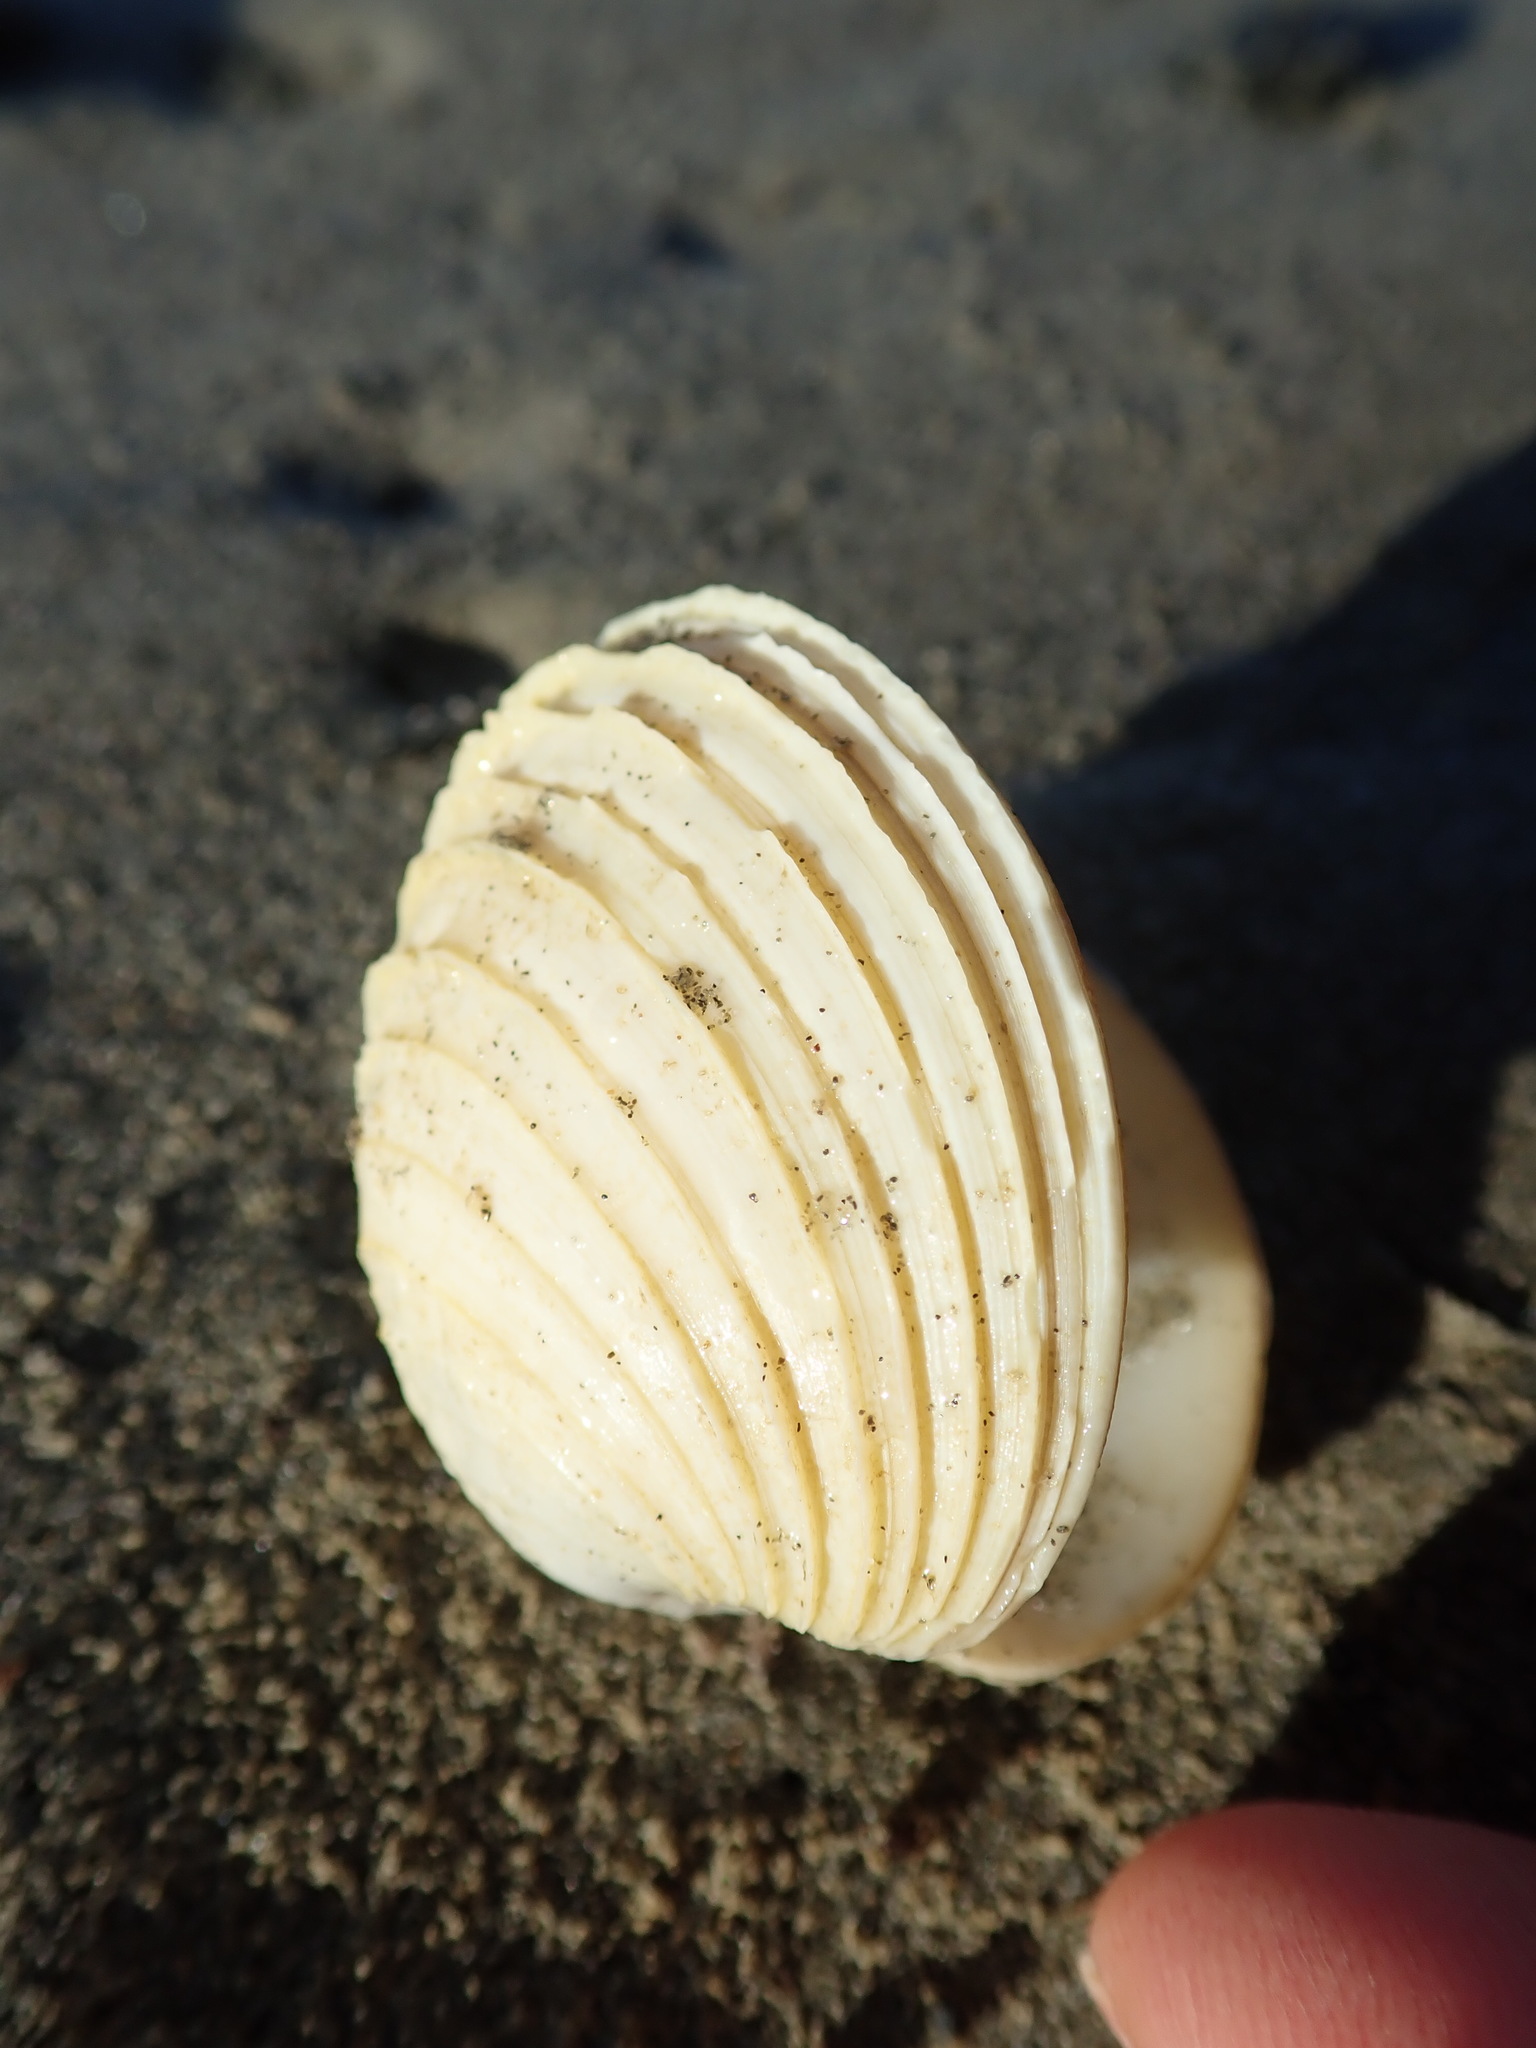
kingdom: Animalia
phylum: Mollusca
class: Bivalvia
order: Venerida
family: Veneridae
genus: Bassina
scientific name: Bassina yatei
